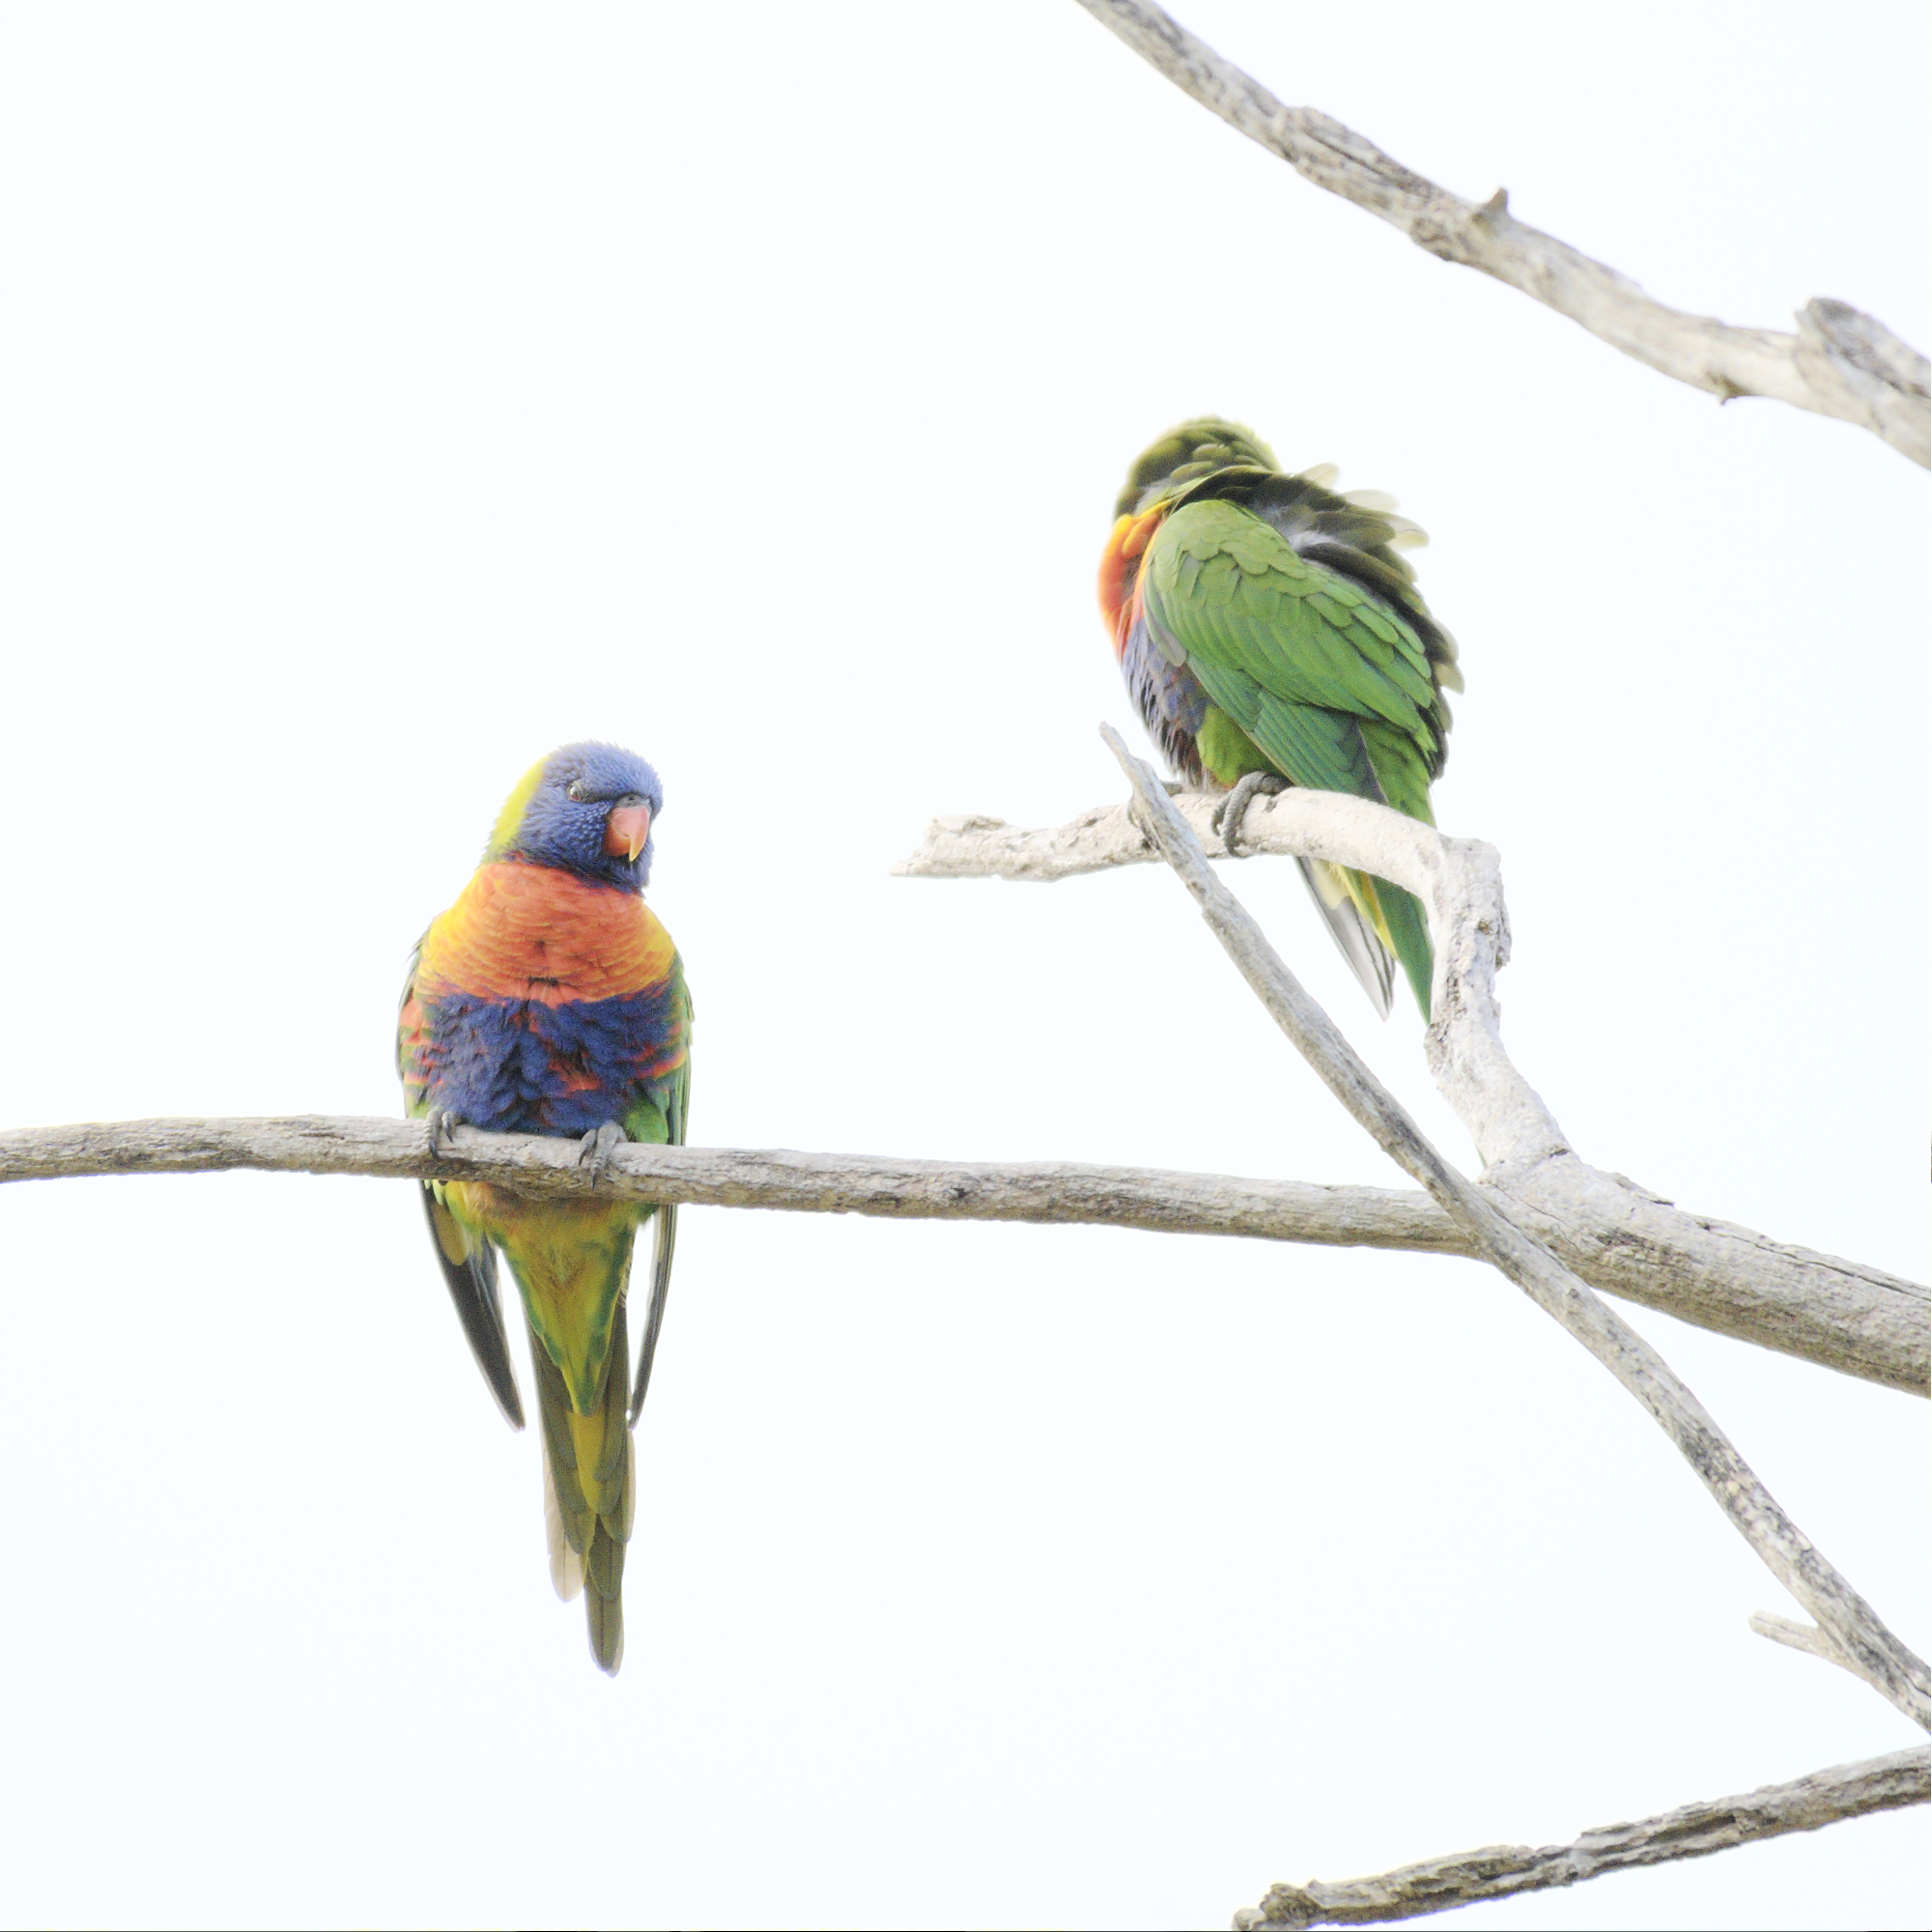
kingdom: Animalia
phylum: Chordata
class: Aves
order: Psittaciformes
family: Psittacidae
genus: Trichoglossus
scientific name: Trichoglossus haematodus
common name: Coconut lorikeet
